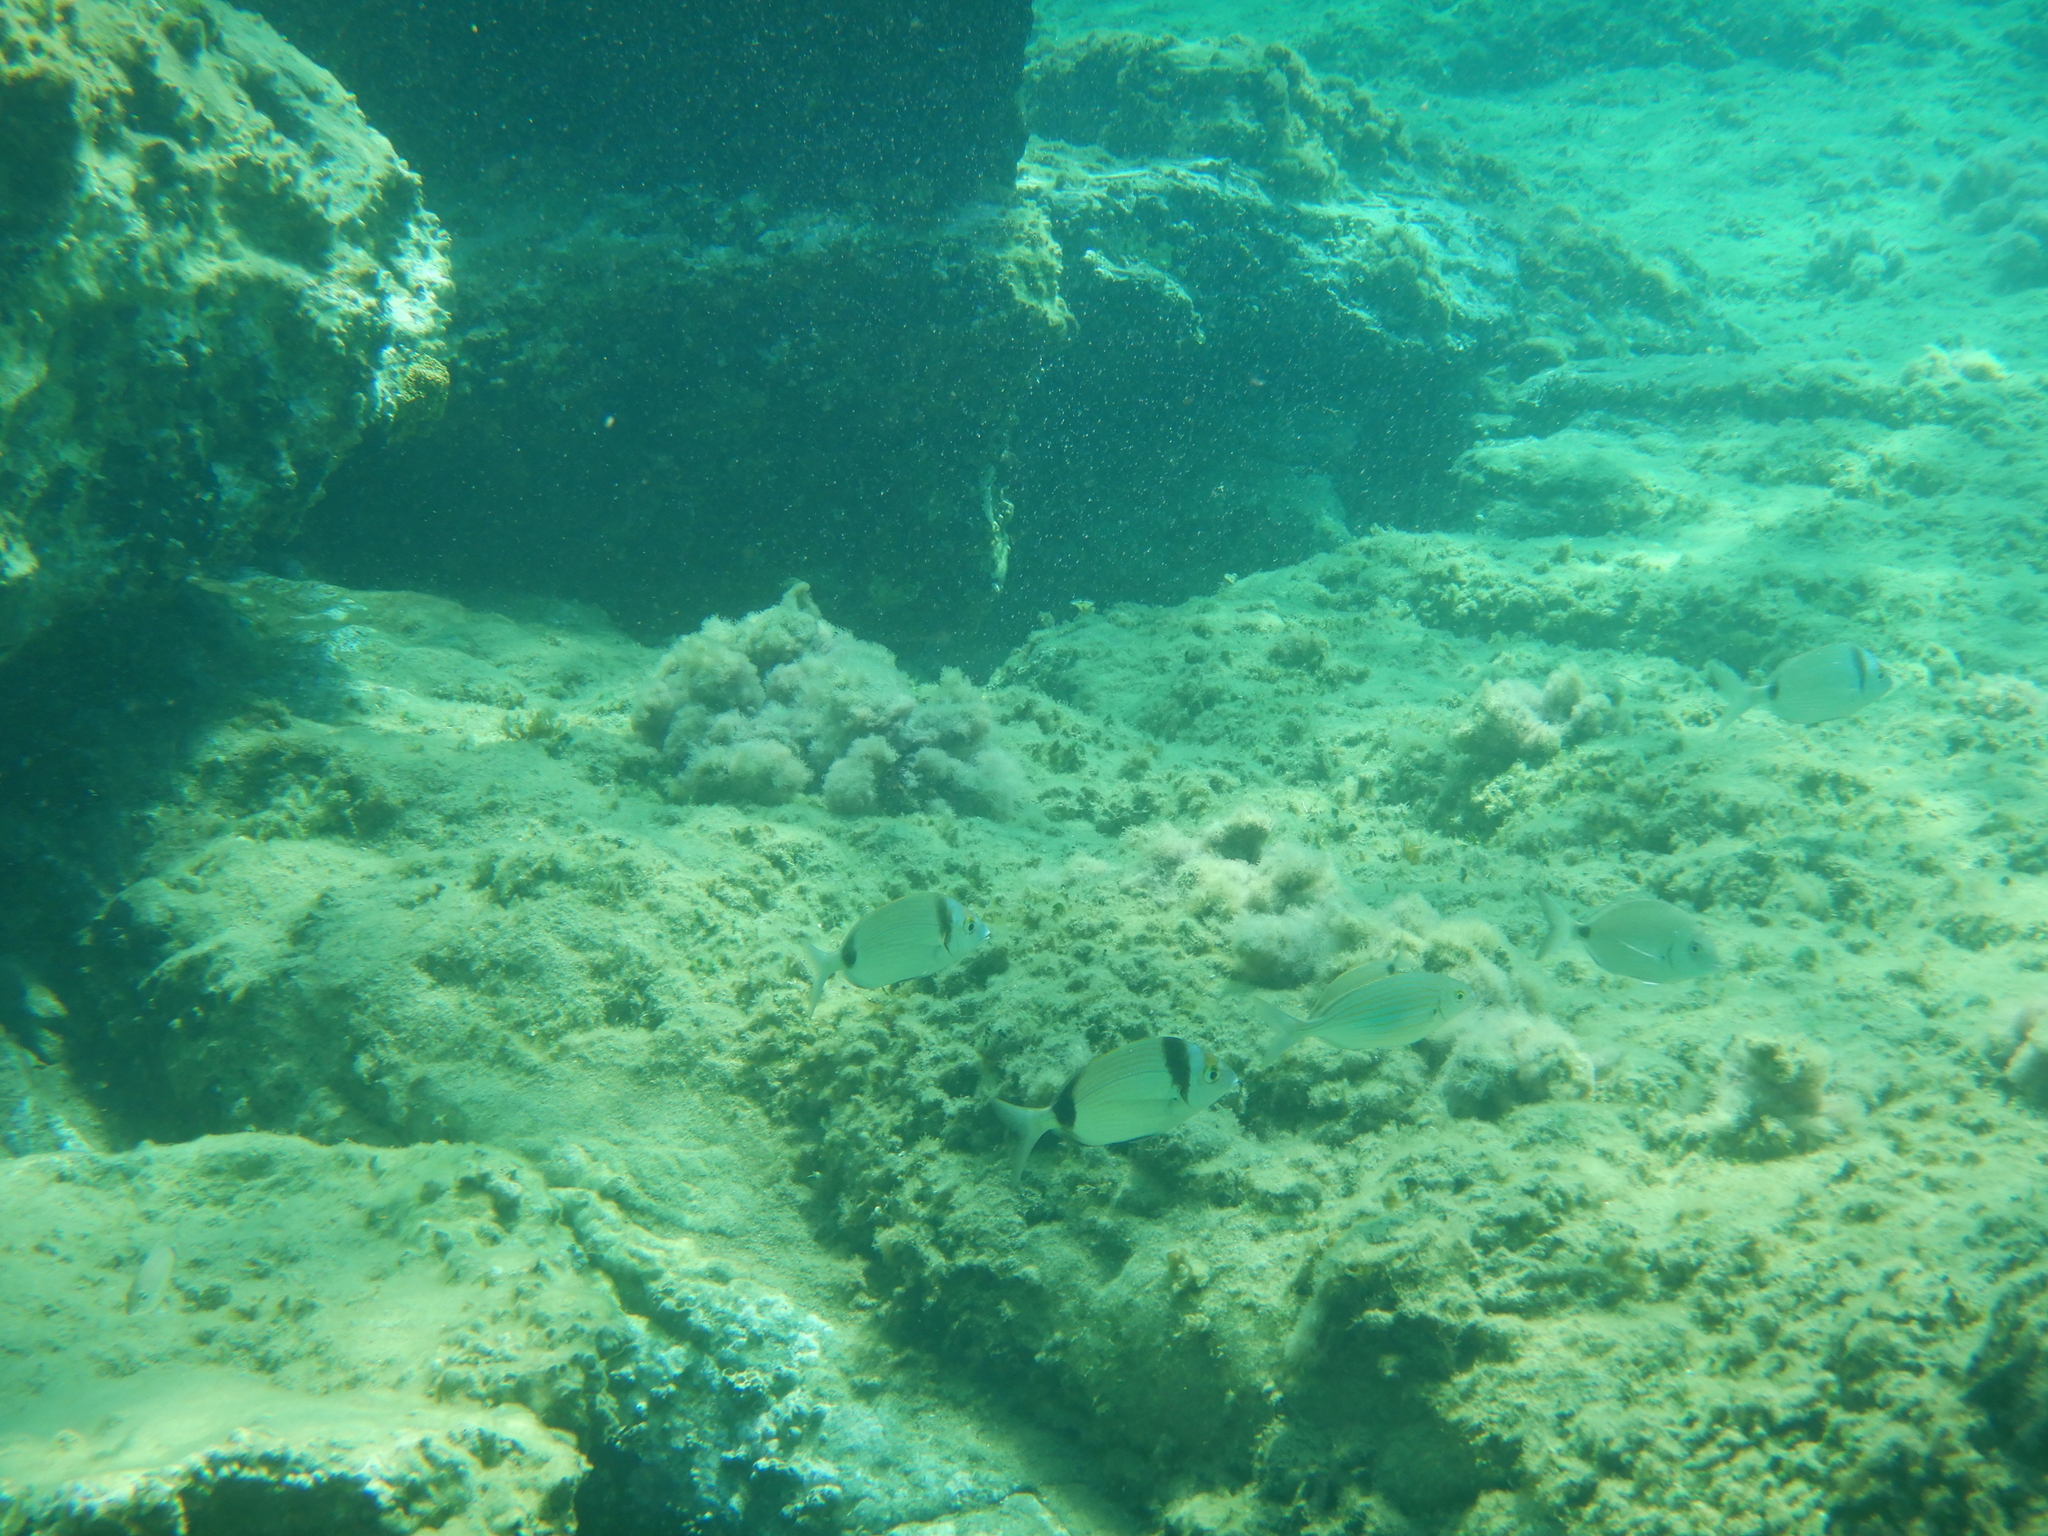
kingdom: Animalia
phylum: Chordata
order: Perciformes
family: Sparidae
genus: Diplodus
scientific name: Diplodus vulgaris
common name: Common two-banded seabream
